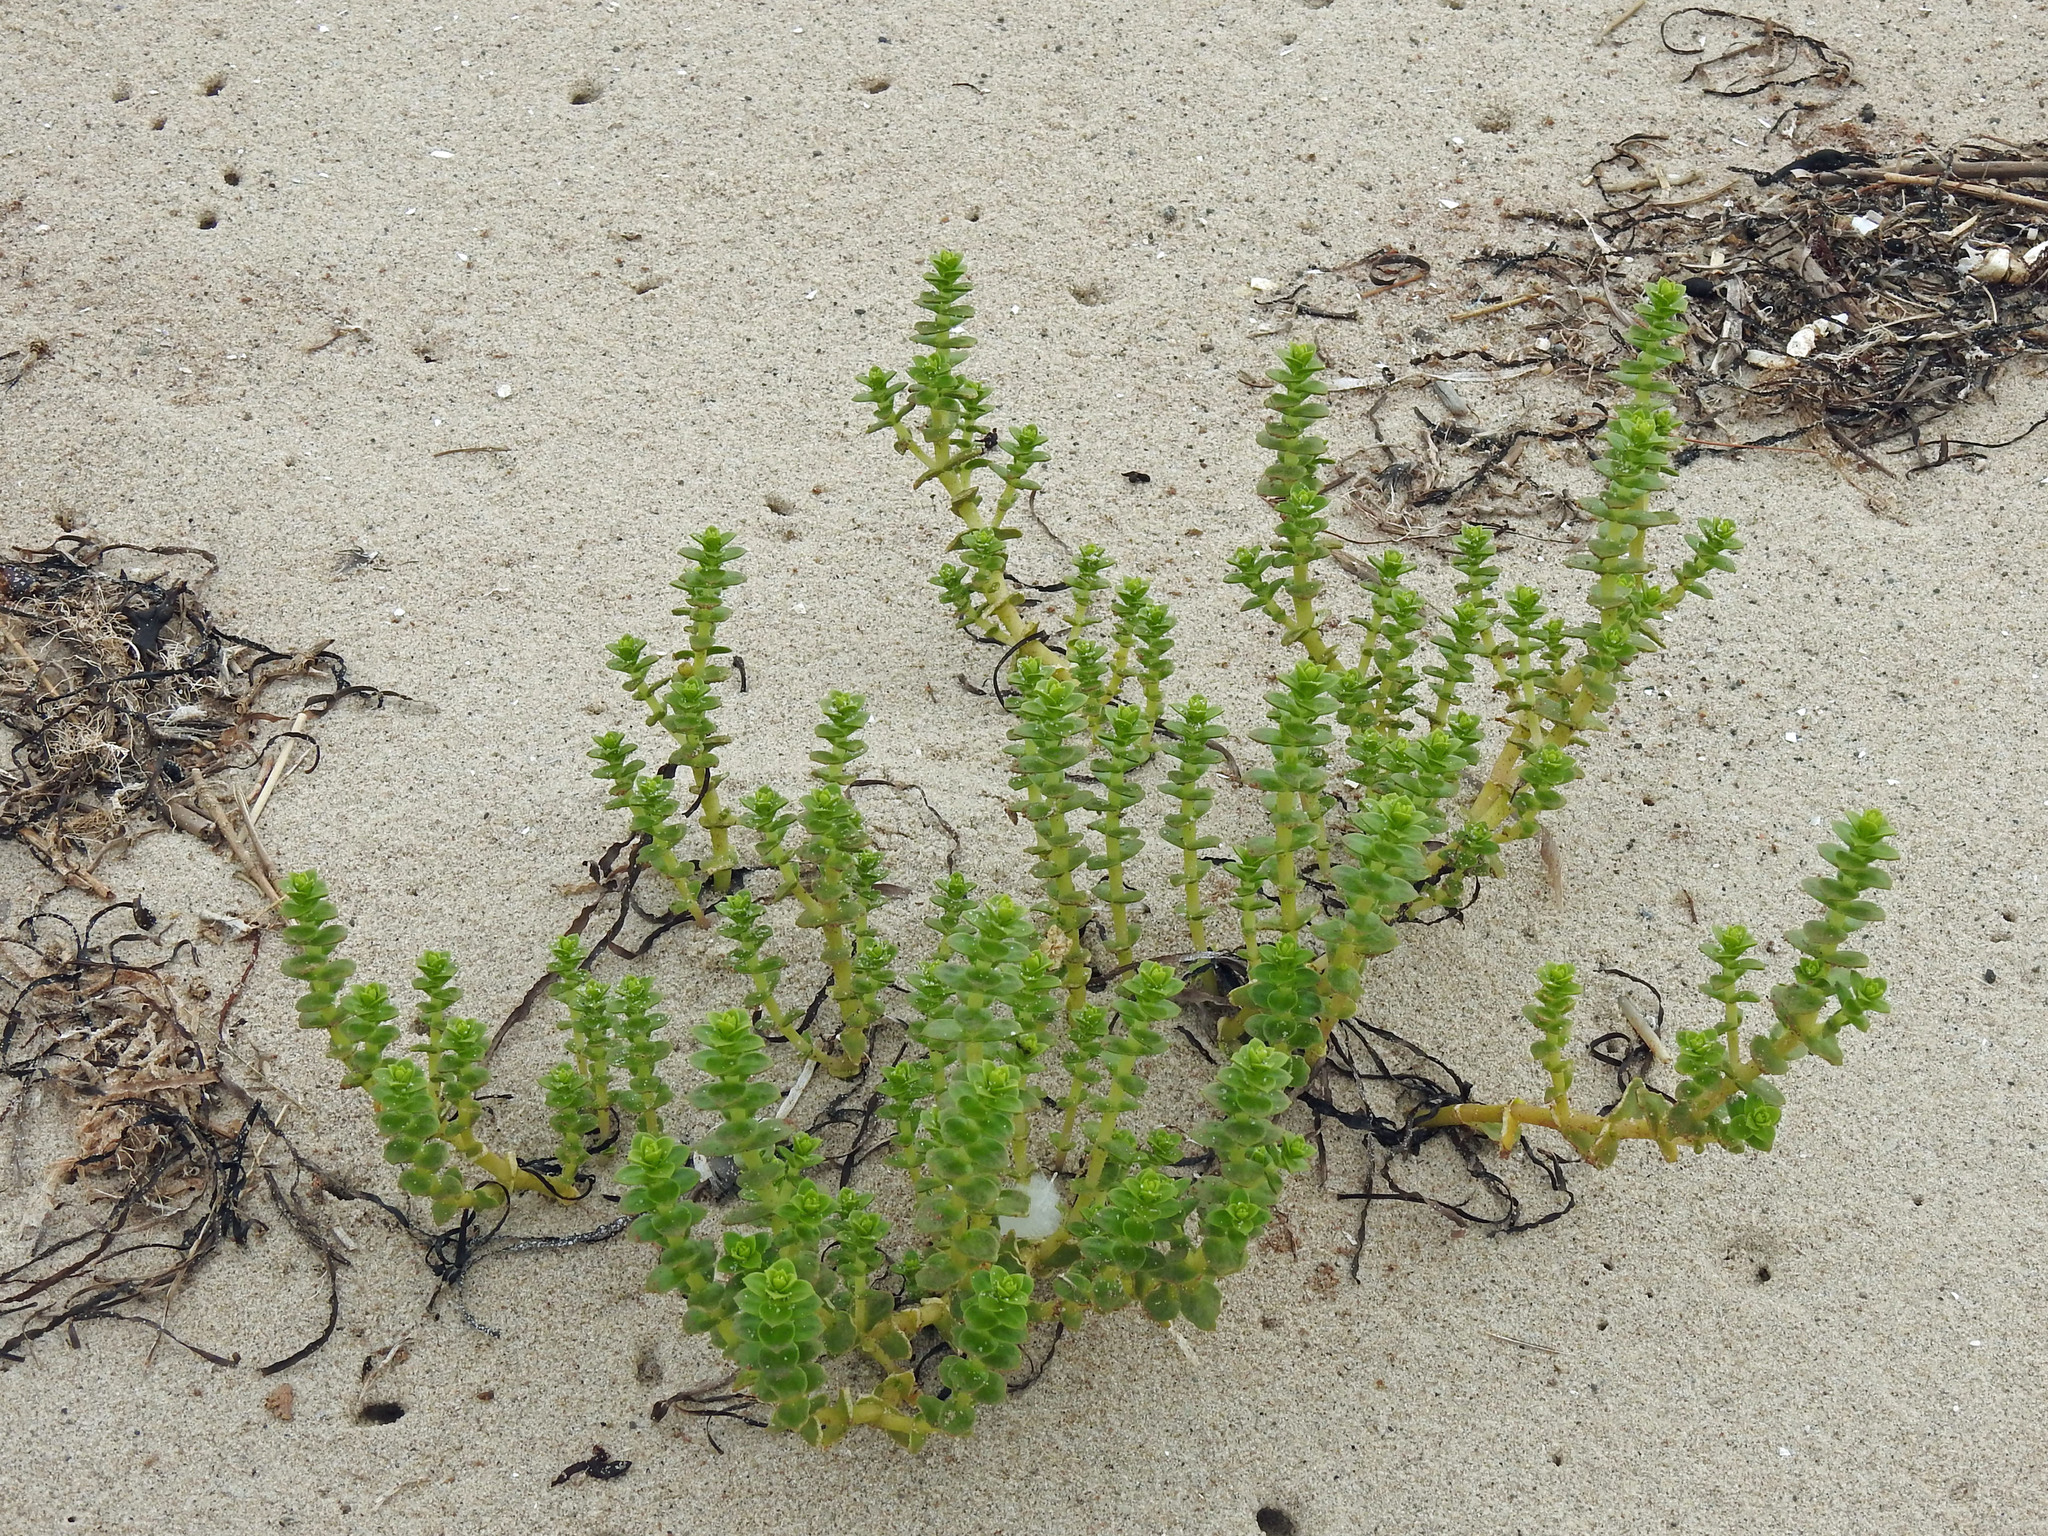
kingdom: Plantae
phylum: Tracheophyta
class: Magnoliopsida
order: Caryophyllales
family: Caryophyllaceae
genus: Honckenya
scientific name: Honckenya peploides
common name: Sea sandwort
